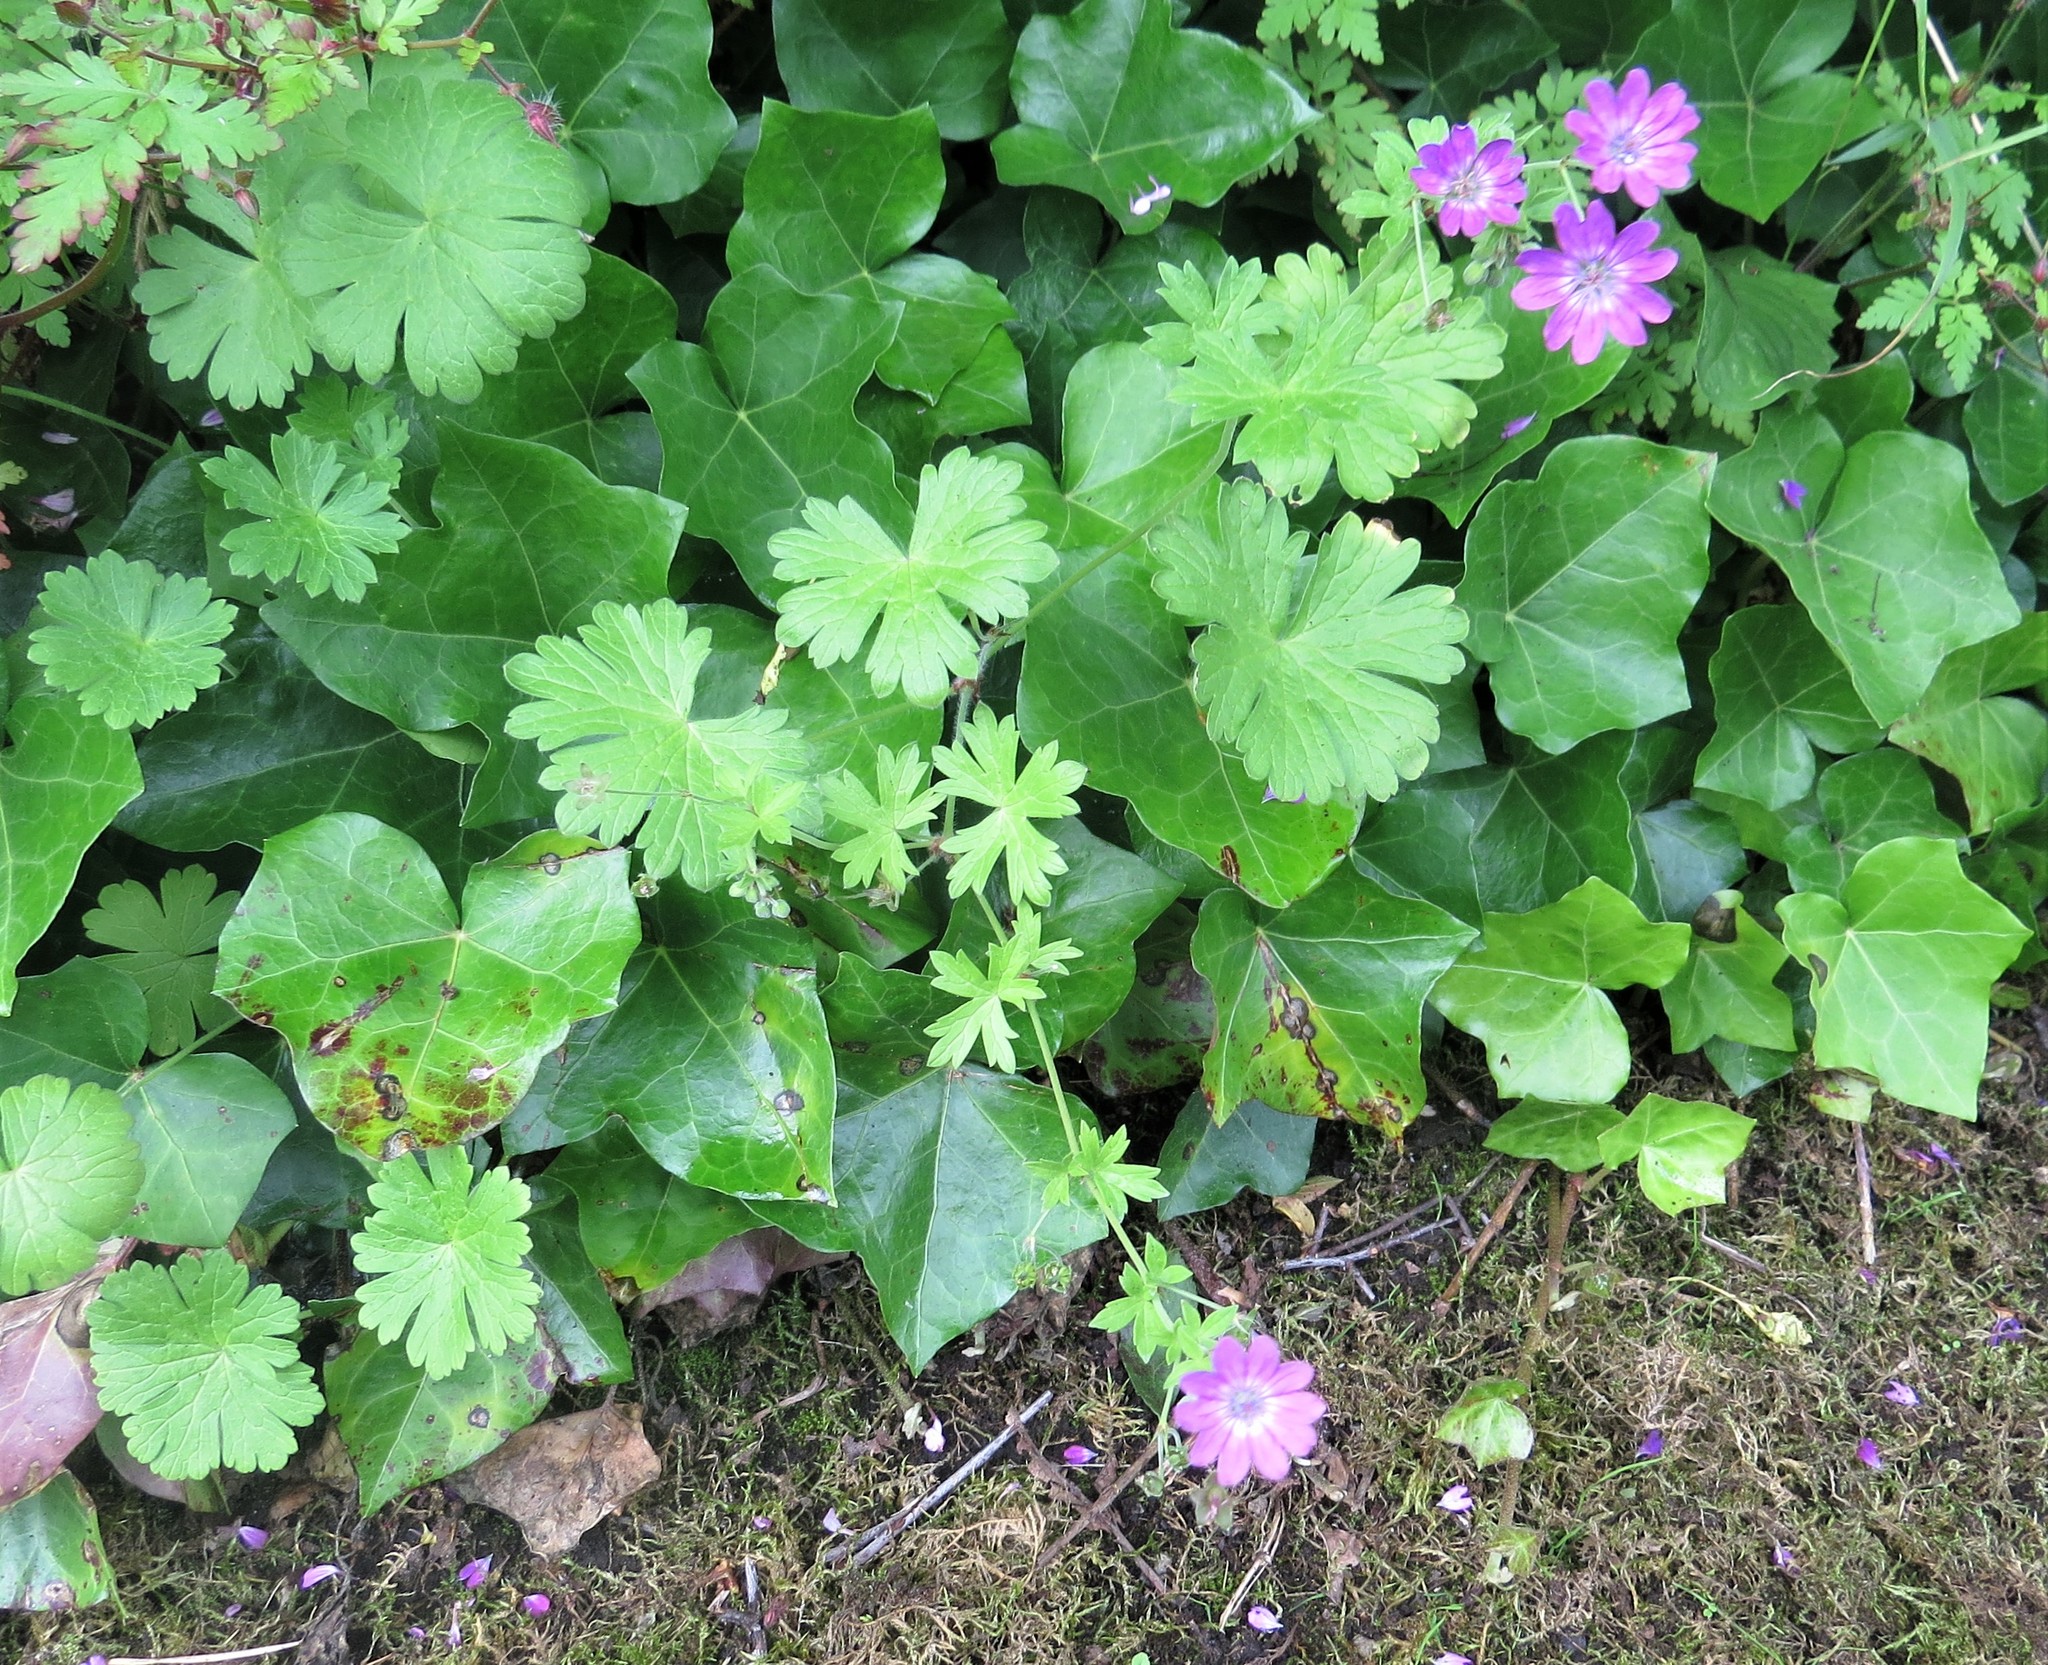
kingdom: Plantae
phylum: Tracheophyta
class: Magnoliopsida
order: Geraniales
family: Geraniaceae
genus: Geranium
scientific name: Geranium pyrenaicum
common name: Hedgerow crane's-bill
